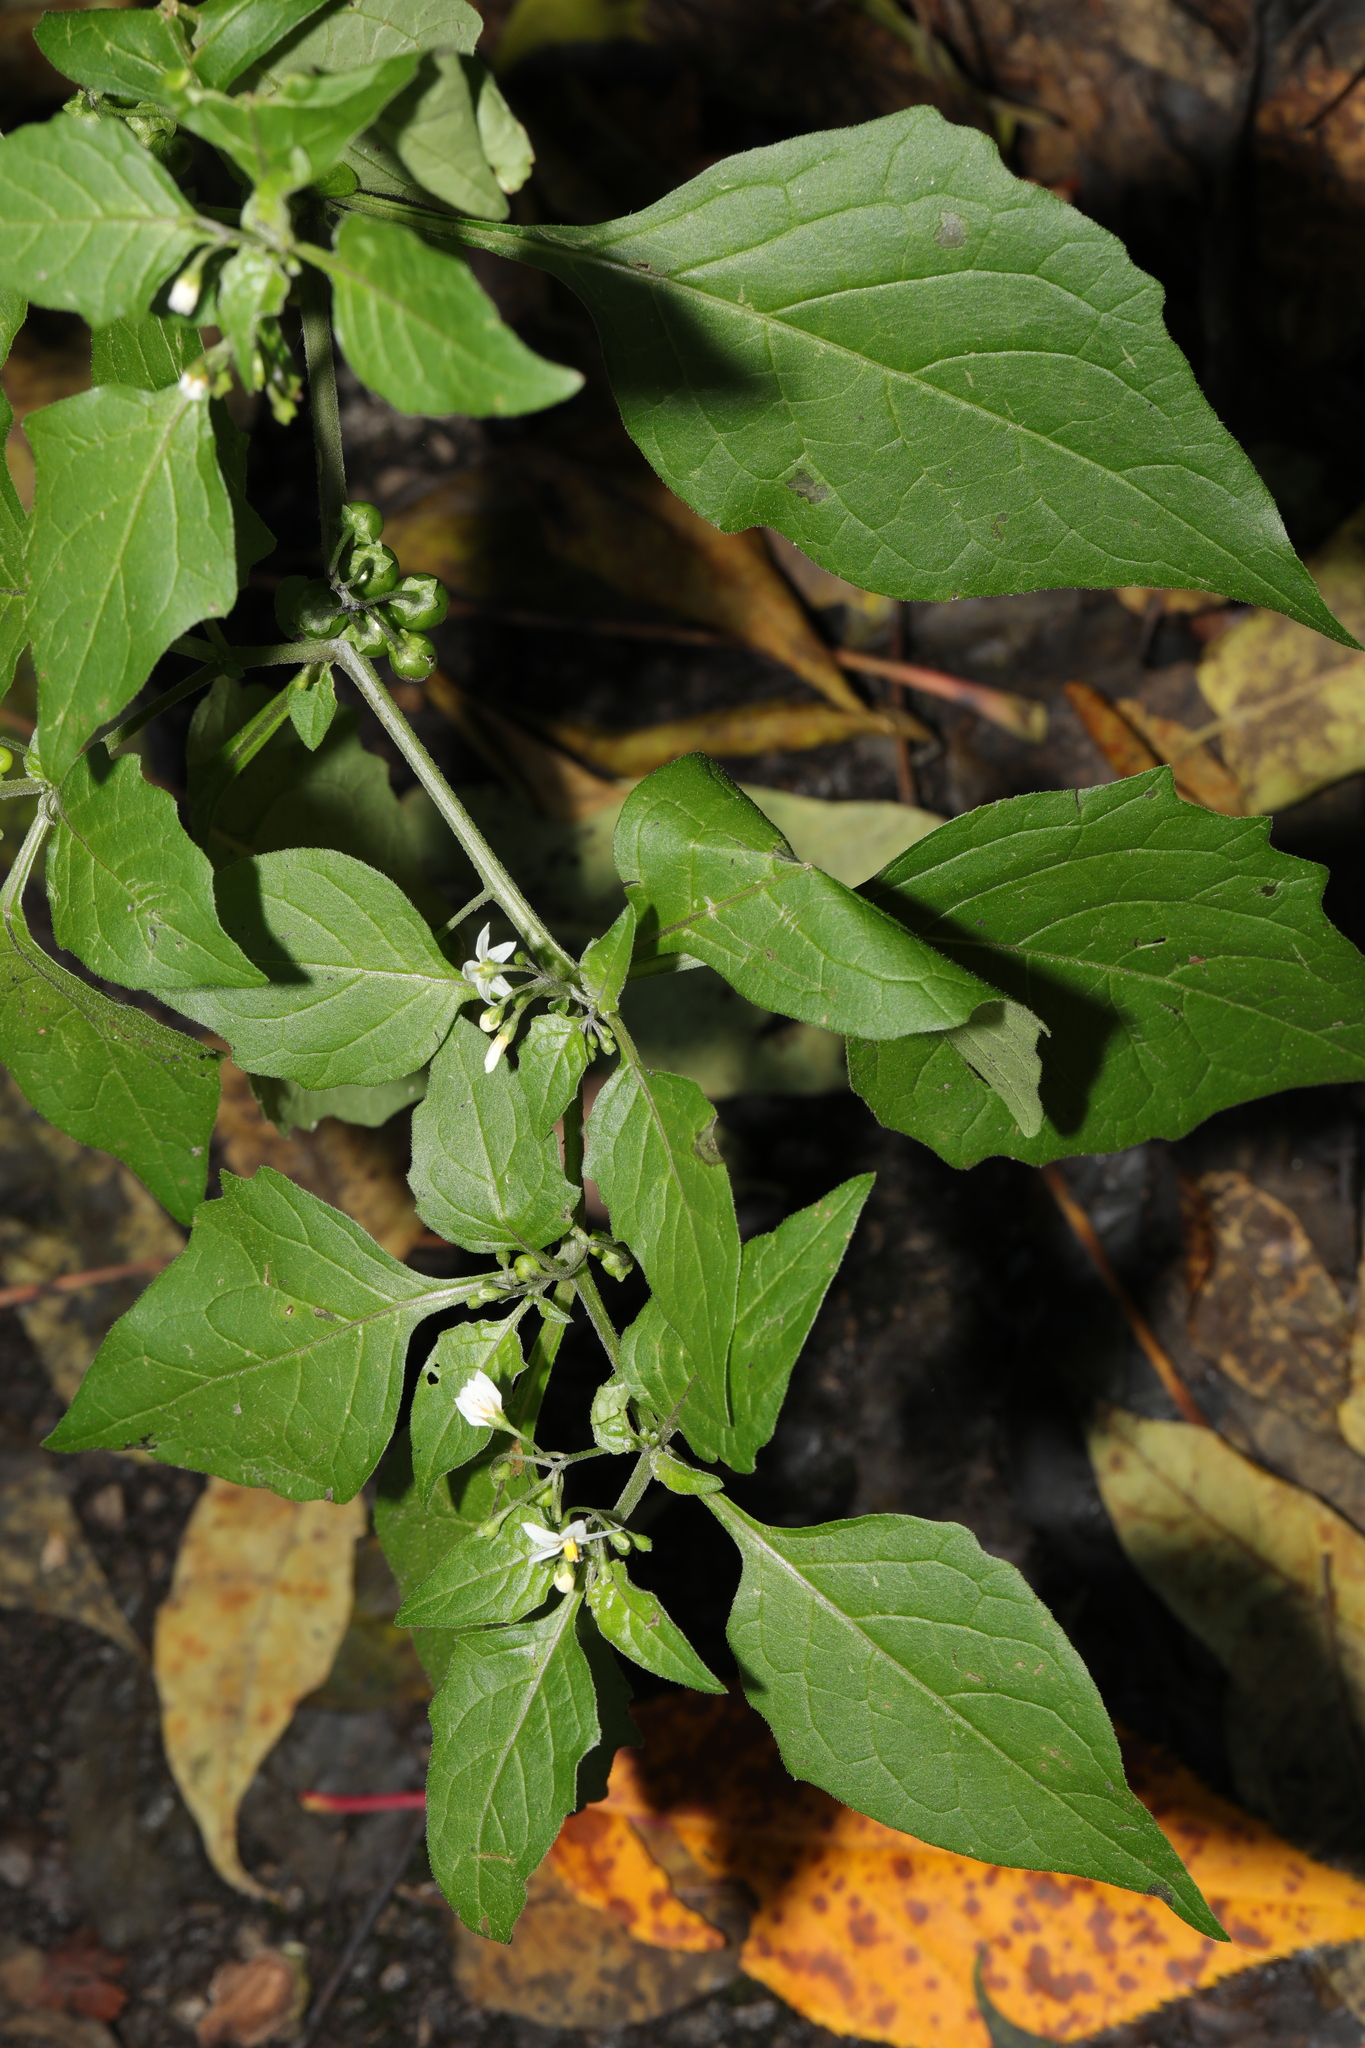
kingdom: Plantae
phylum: Tracheophyta
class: Magnoliopsida
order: Solanales
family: Solanaceae
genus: Solanum
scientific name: Solanum nigrum
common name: Black nightshade
